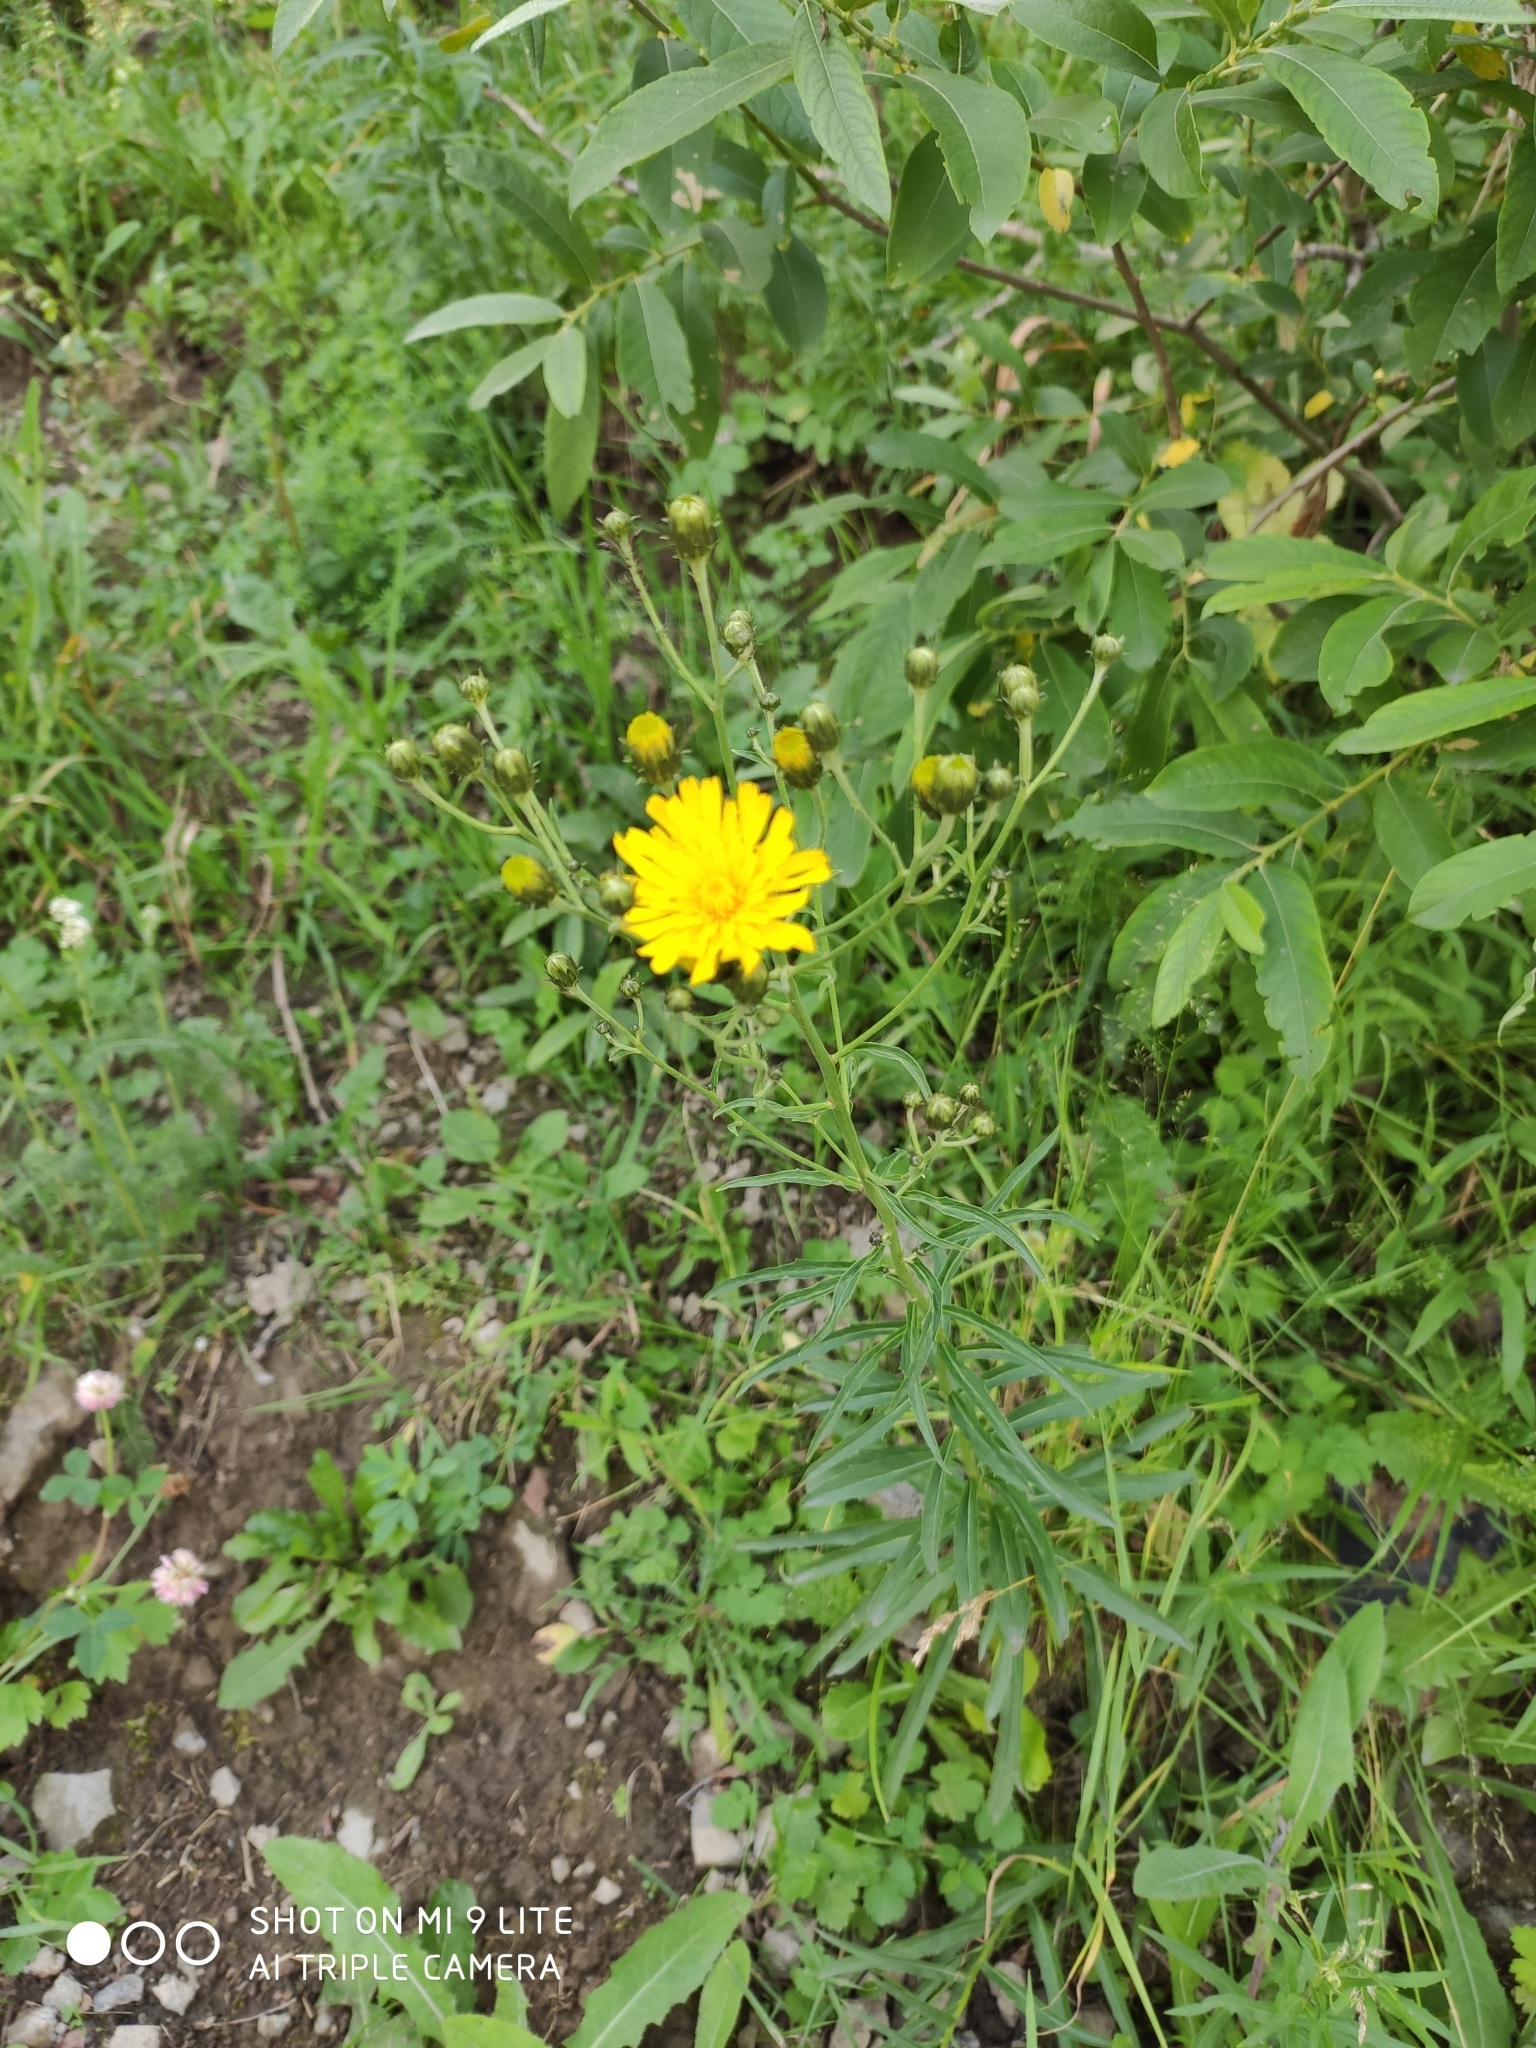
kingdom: Plantae
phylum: Tracheophyta
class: Magnoliopsida
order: Asterales
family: Asteraceae
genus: Hieracium
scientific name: Hieracium umbellatum
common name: Northern hawkweed
